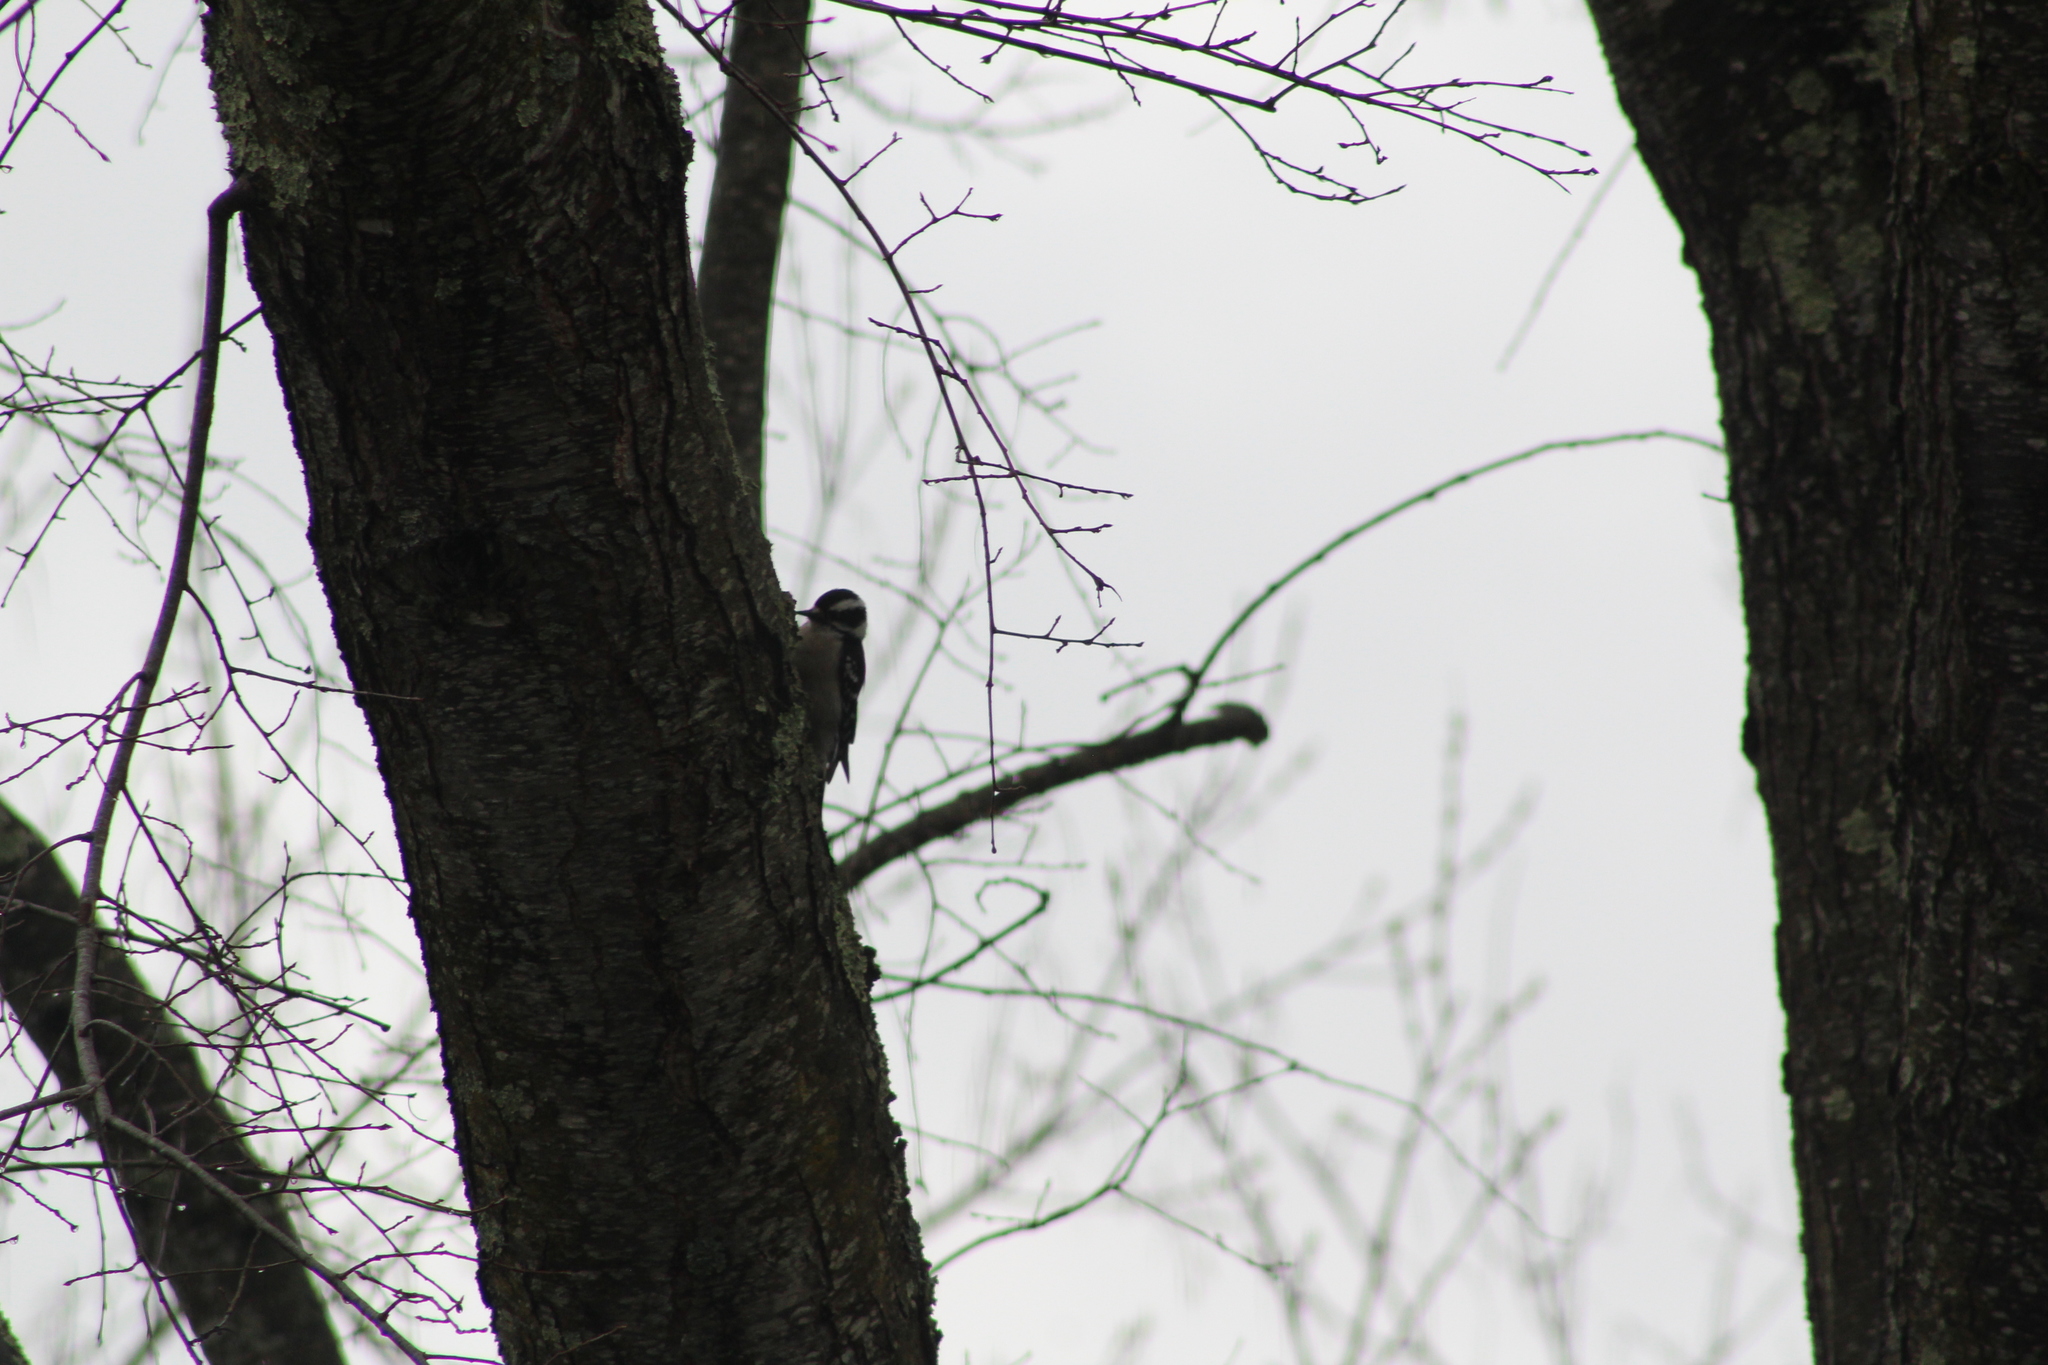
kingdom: Animalia
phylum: Chordata
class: Aves
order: Piciformes
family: Picidae
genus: Dryobates
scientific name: Dryobates pubescens
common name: Downy woodpecker
